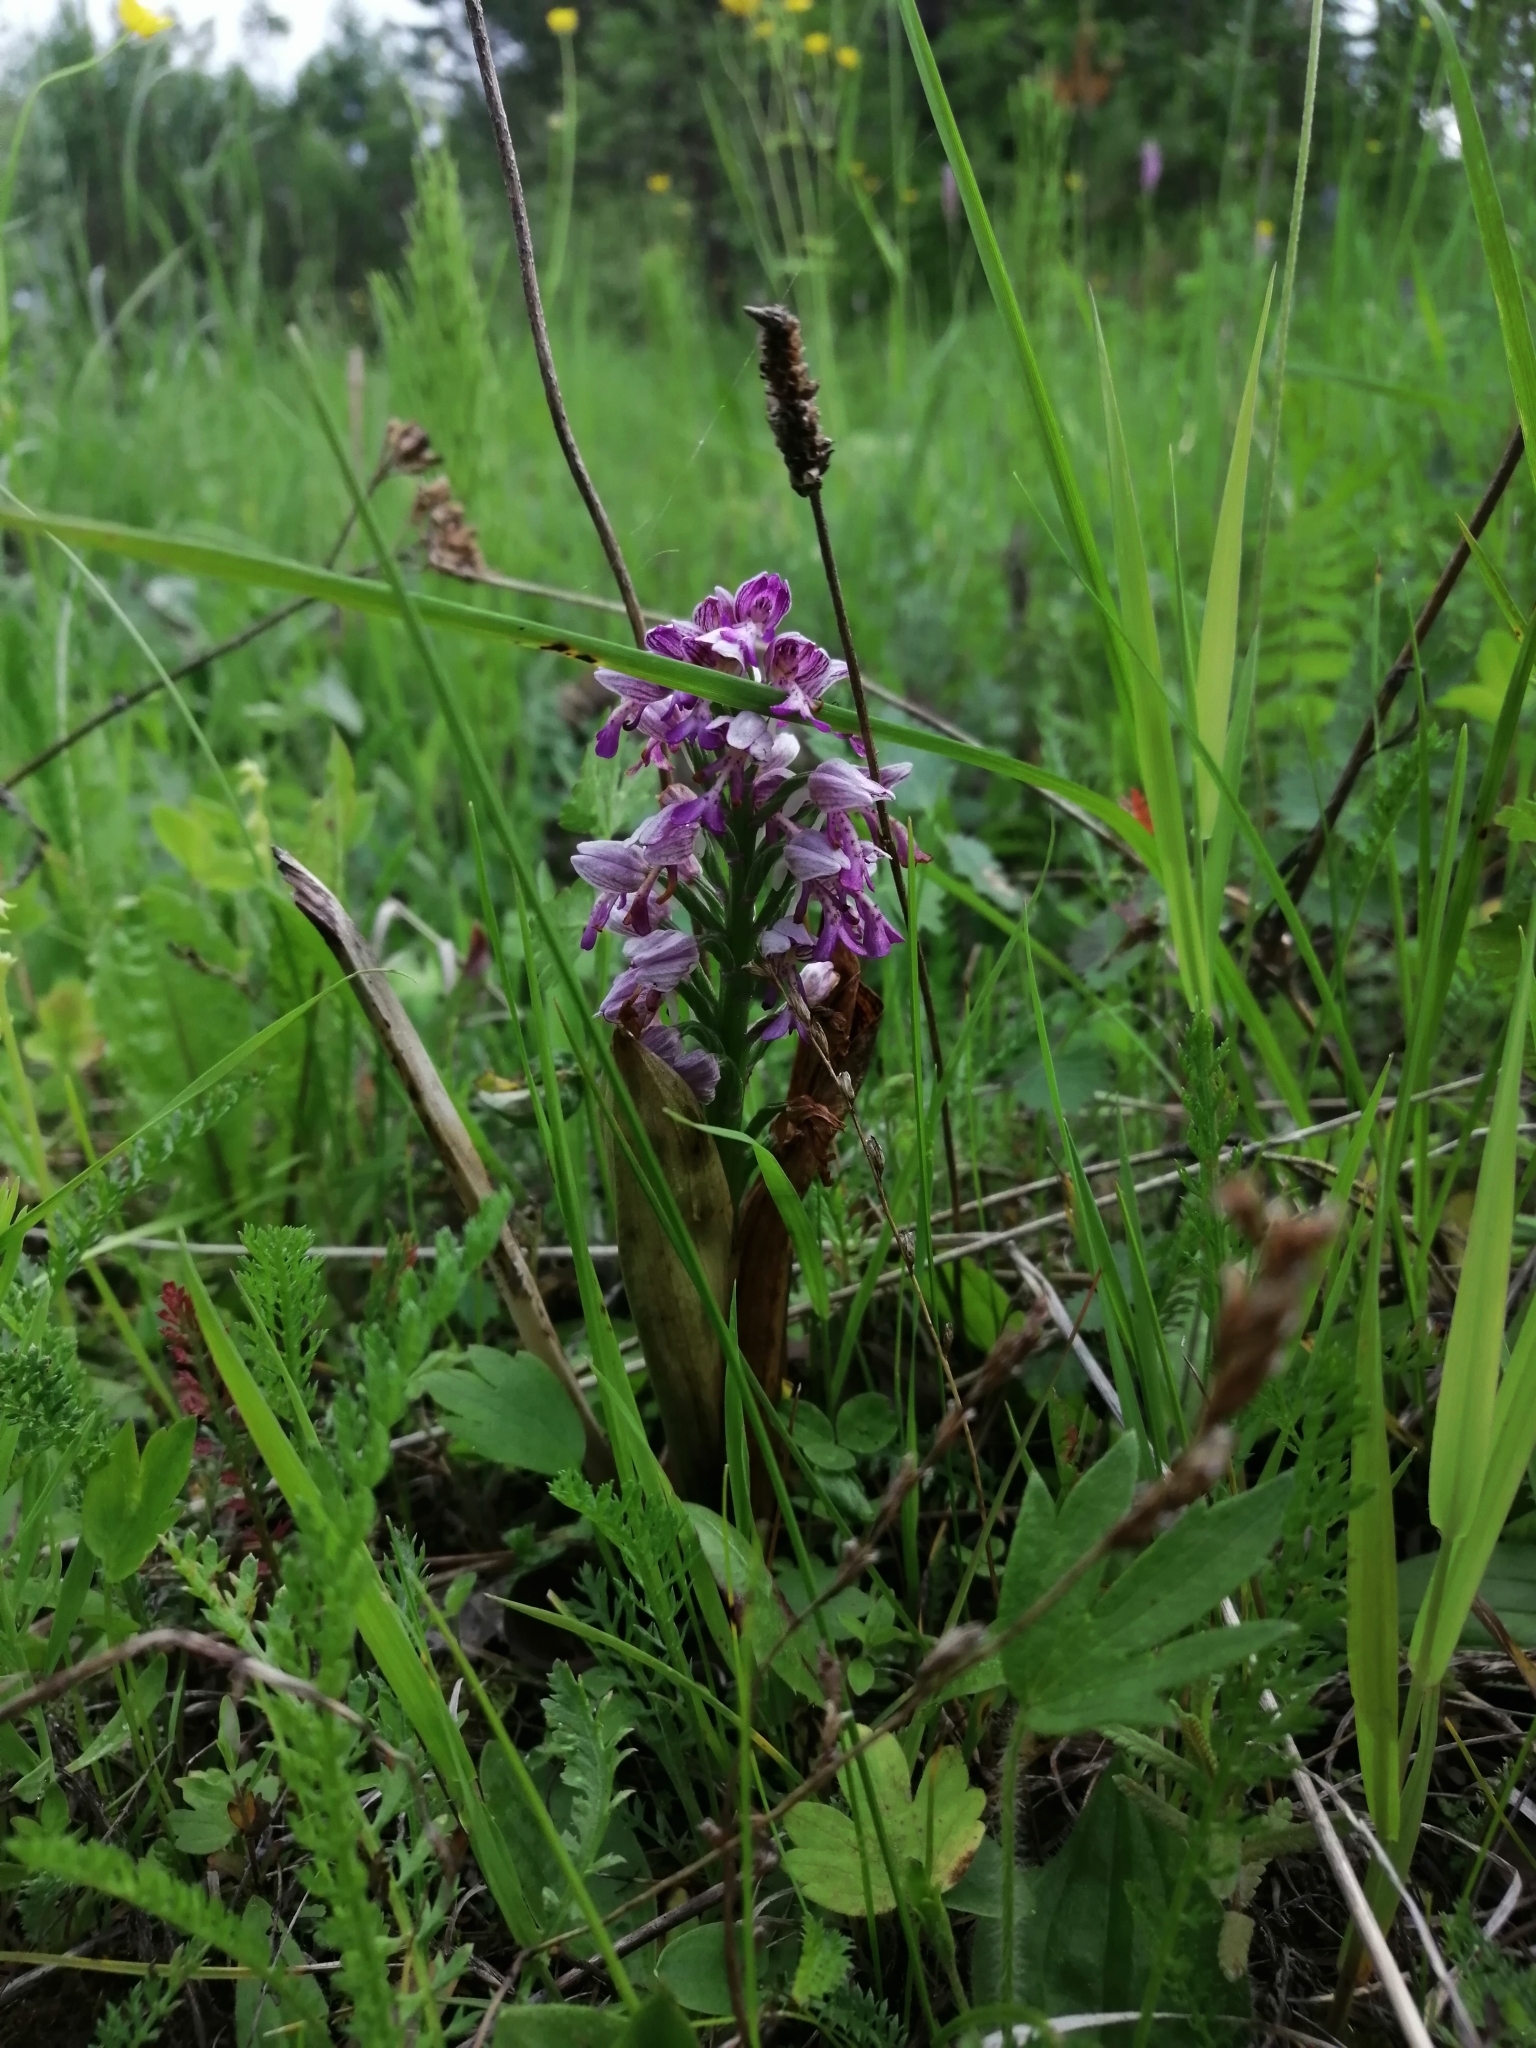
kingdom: Plantae
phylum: Tracheophyta
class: Liliopsida
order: Asparagales
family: Orchidaceae
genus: Orchis
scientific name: Orchis militaris
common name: Military orchid
